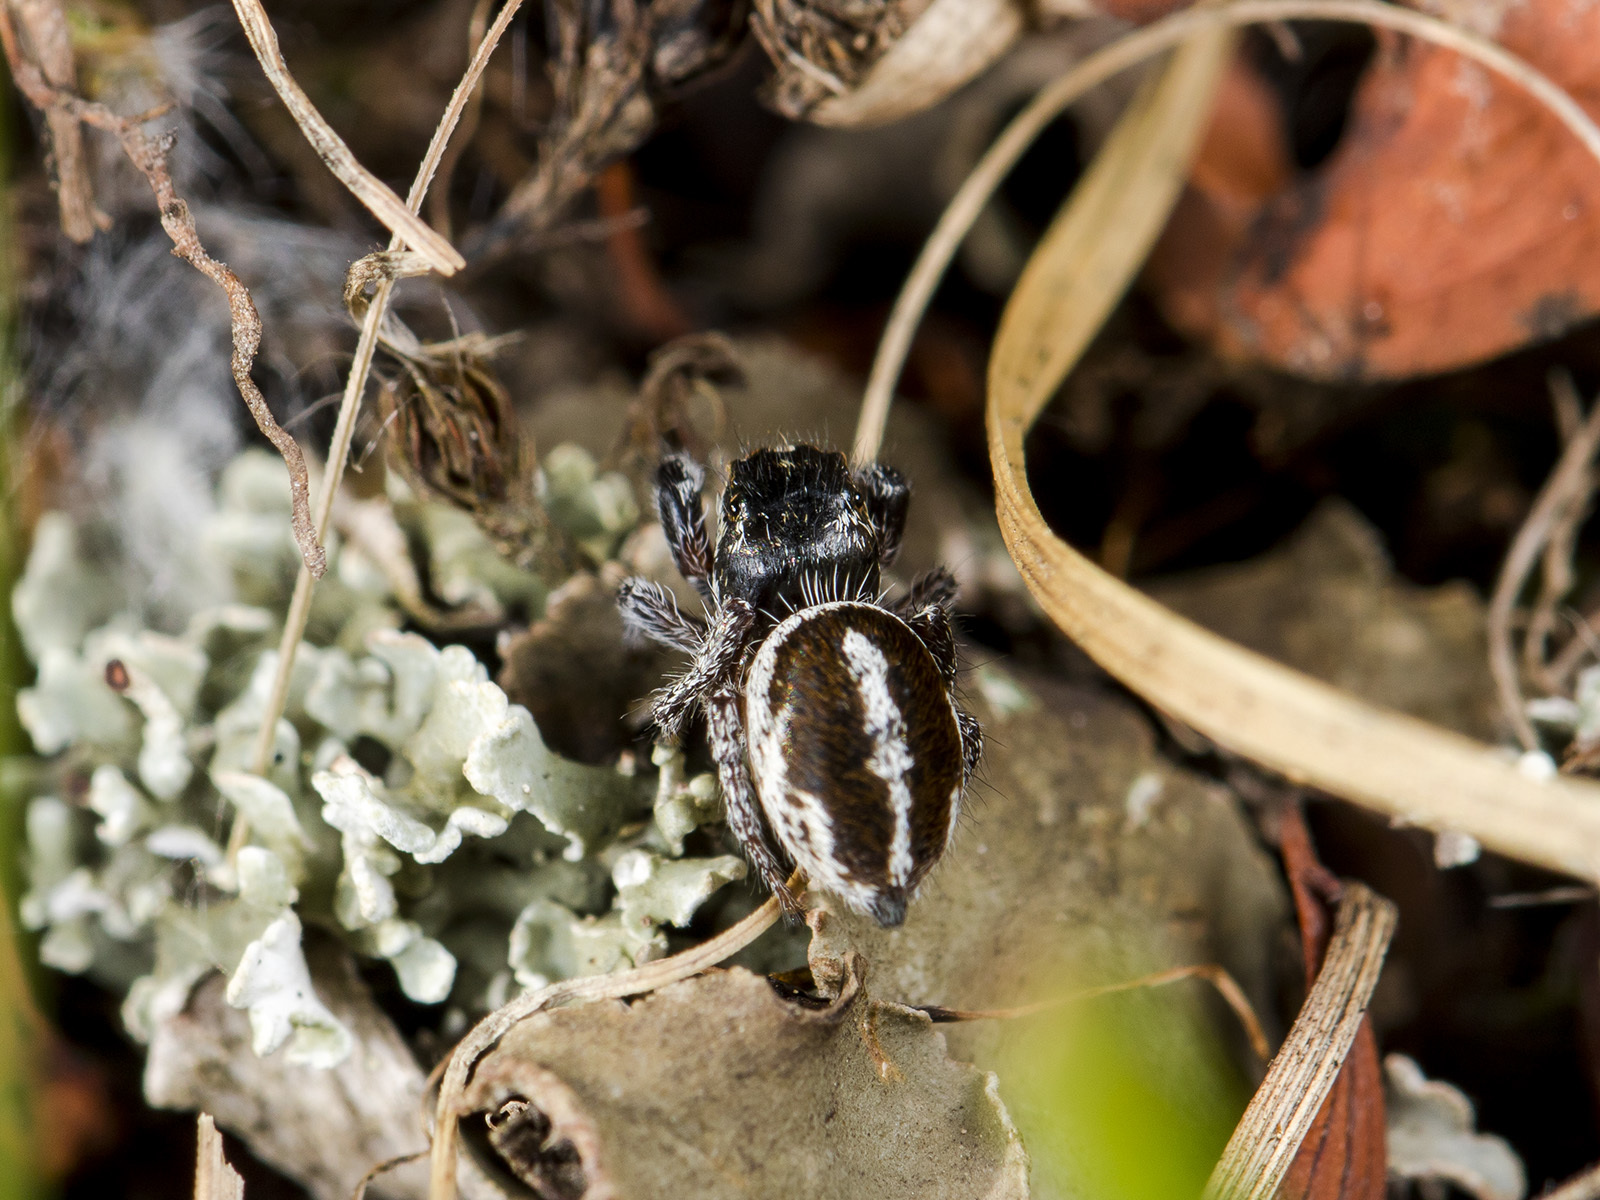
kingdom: Animalia
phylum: Arthropoda
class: Arachnida
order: Araneae
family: Salticidae
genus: Pellenes
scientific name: Pellenes allegrii
